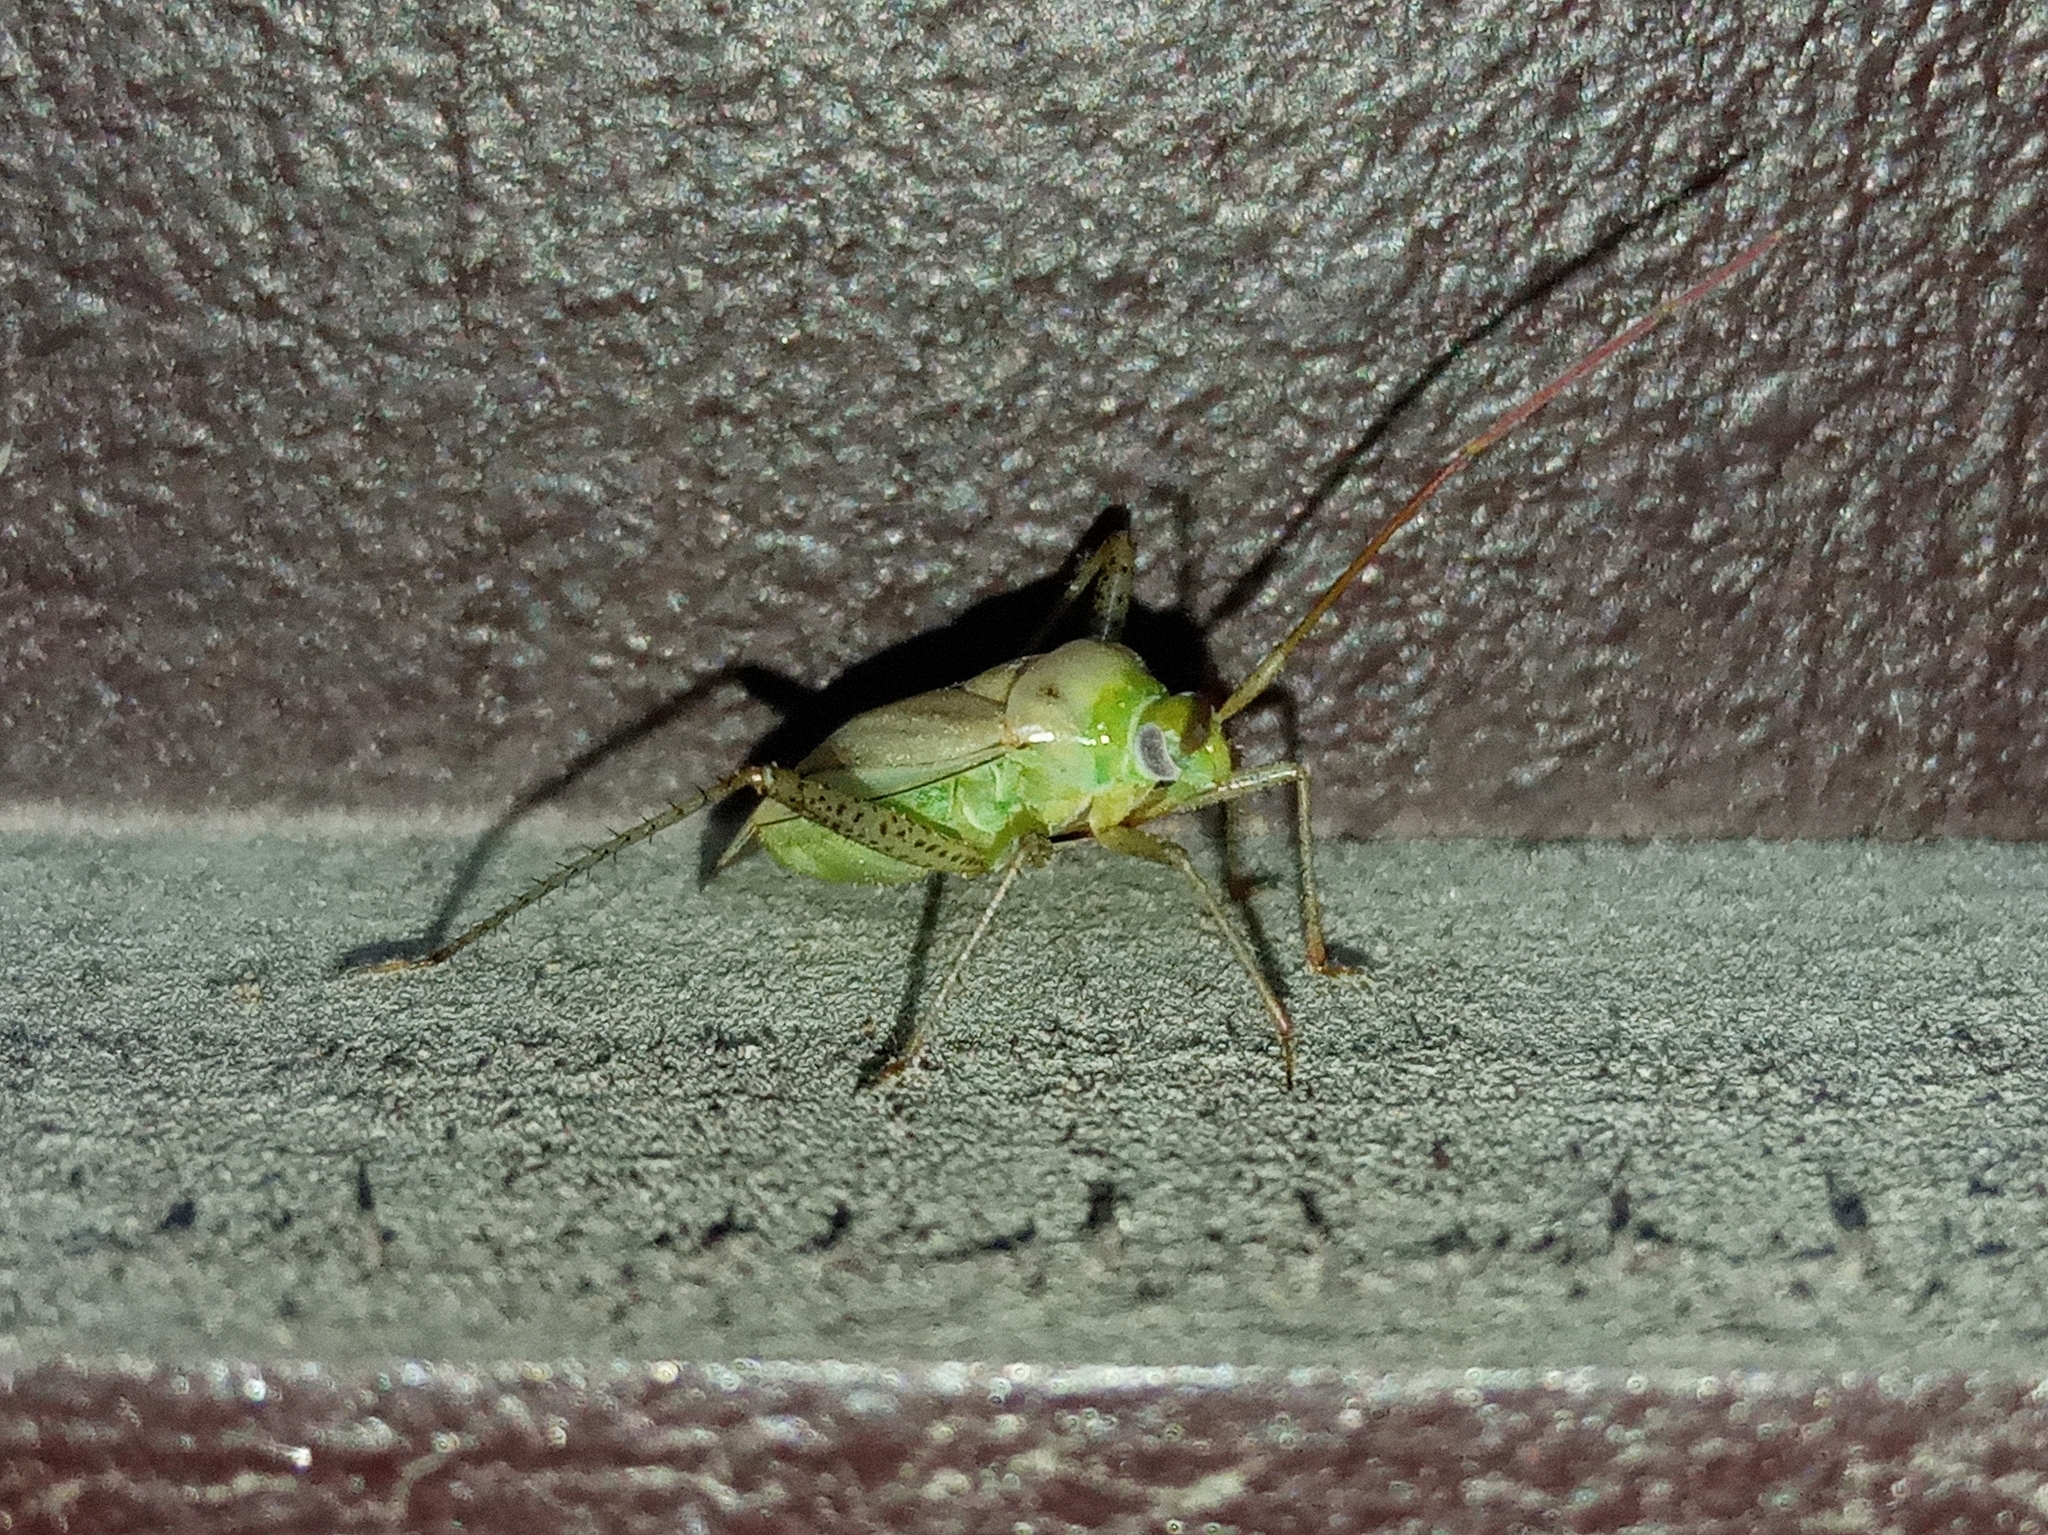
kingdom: Animalia
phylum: Arthropoda
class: Insecta
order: Hemiptera
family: Miridae
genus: Adelphocoris
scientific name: Adelphocoris
